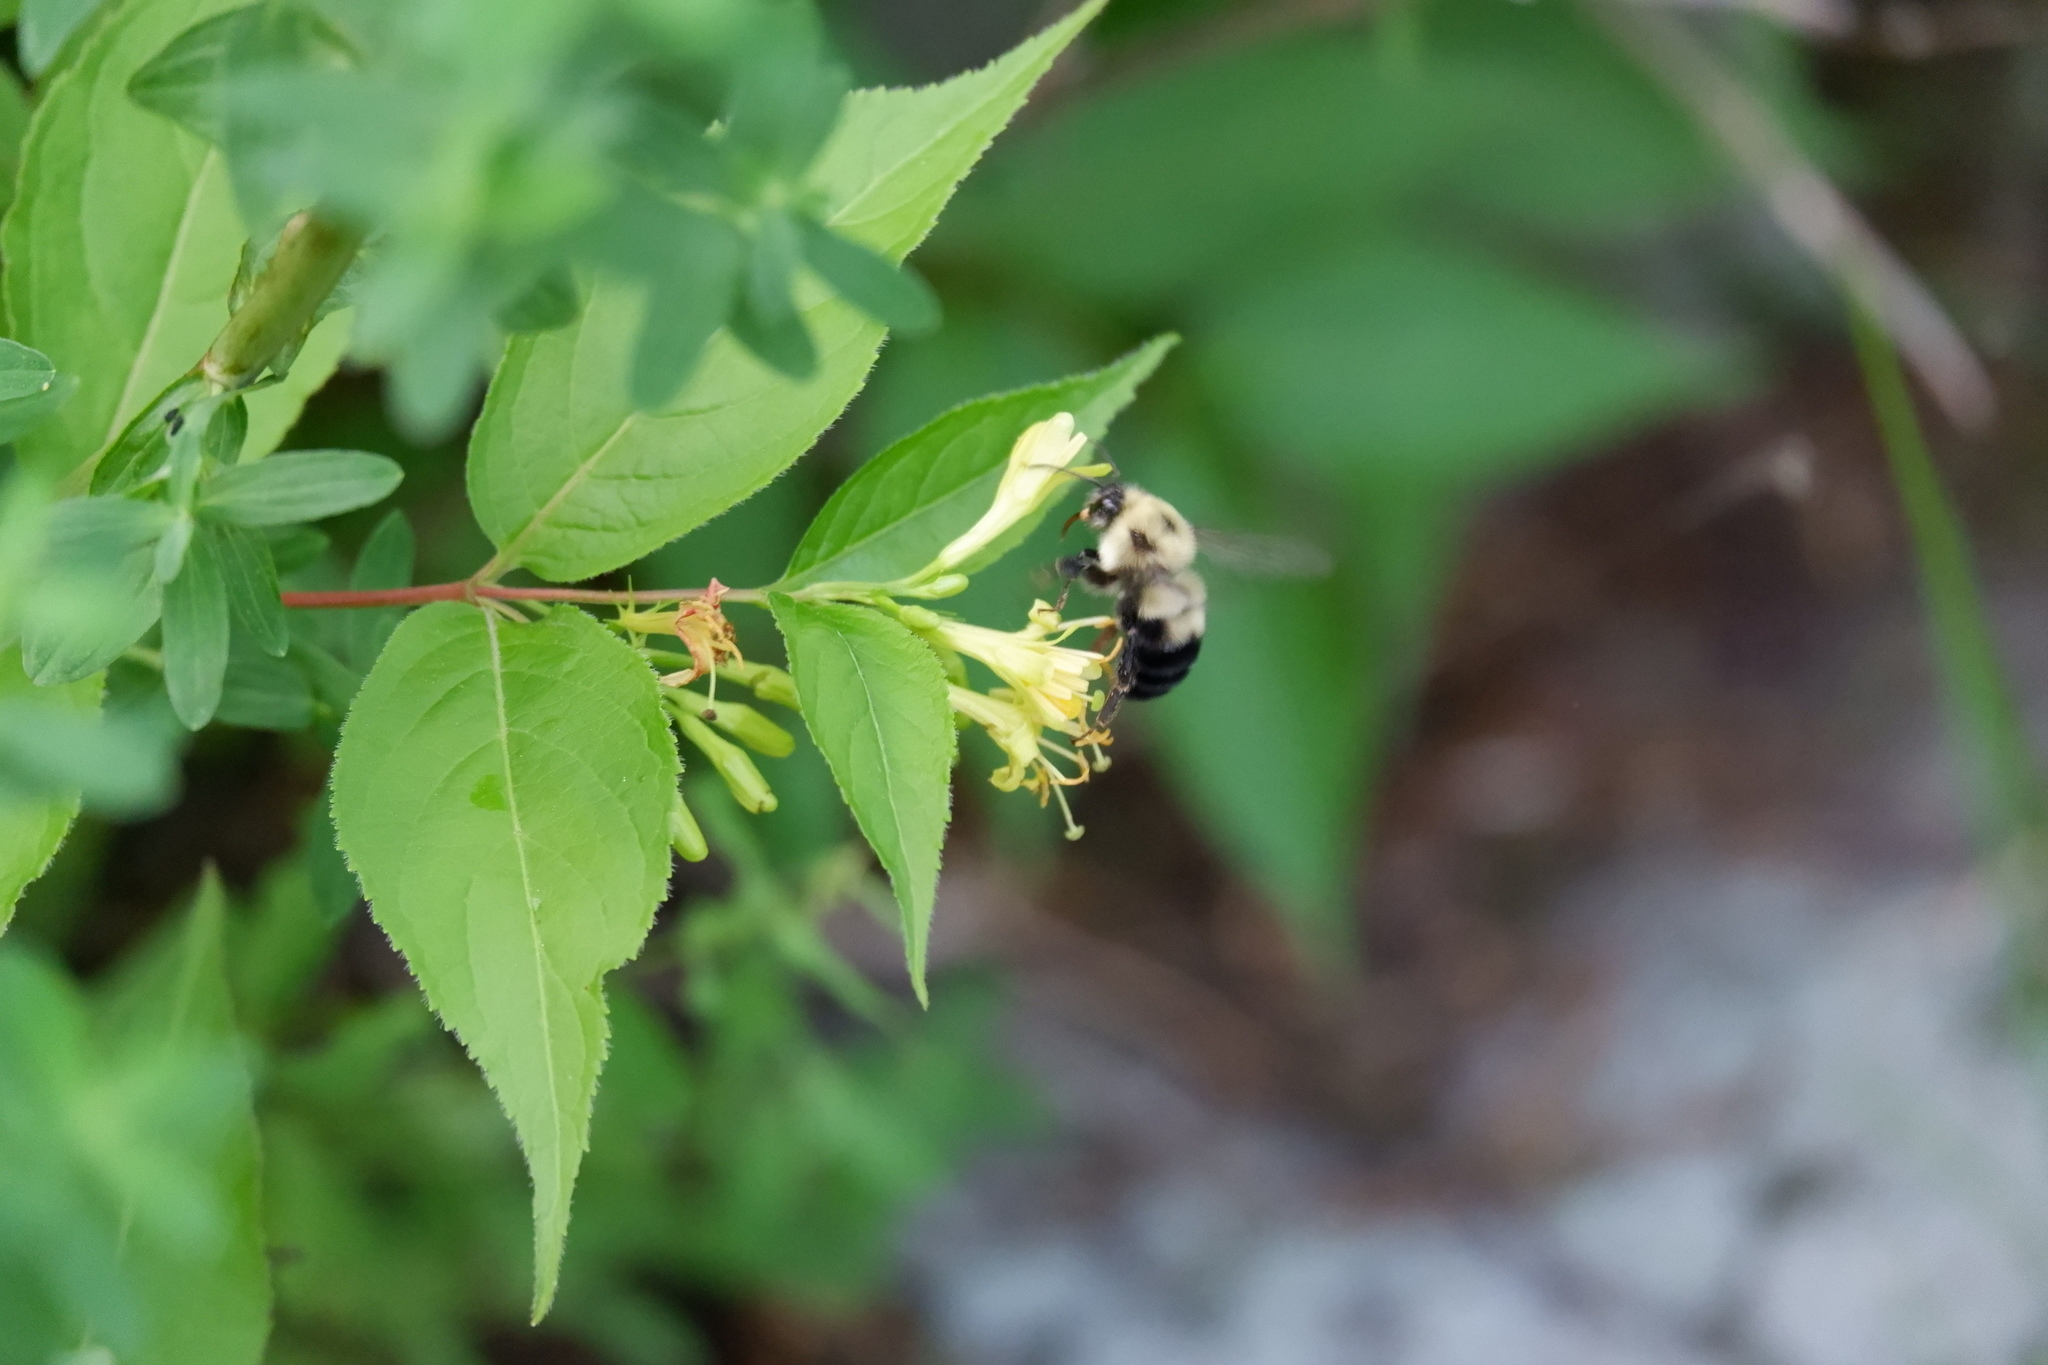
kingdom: Animalia
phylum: Arthropoda
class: Insecta
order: Hymenoptera
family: Apidae
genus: Bombus
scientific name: Bombus bimaculatus
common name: Two-spotted bumble bee
